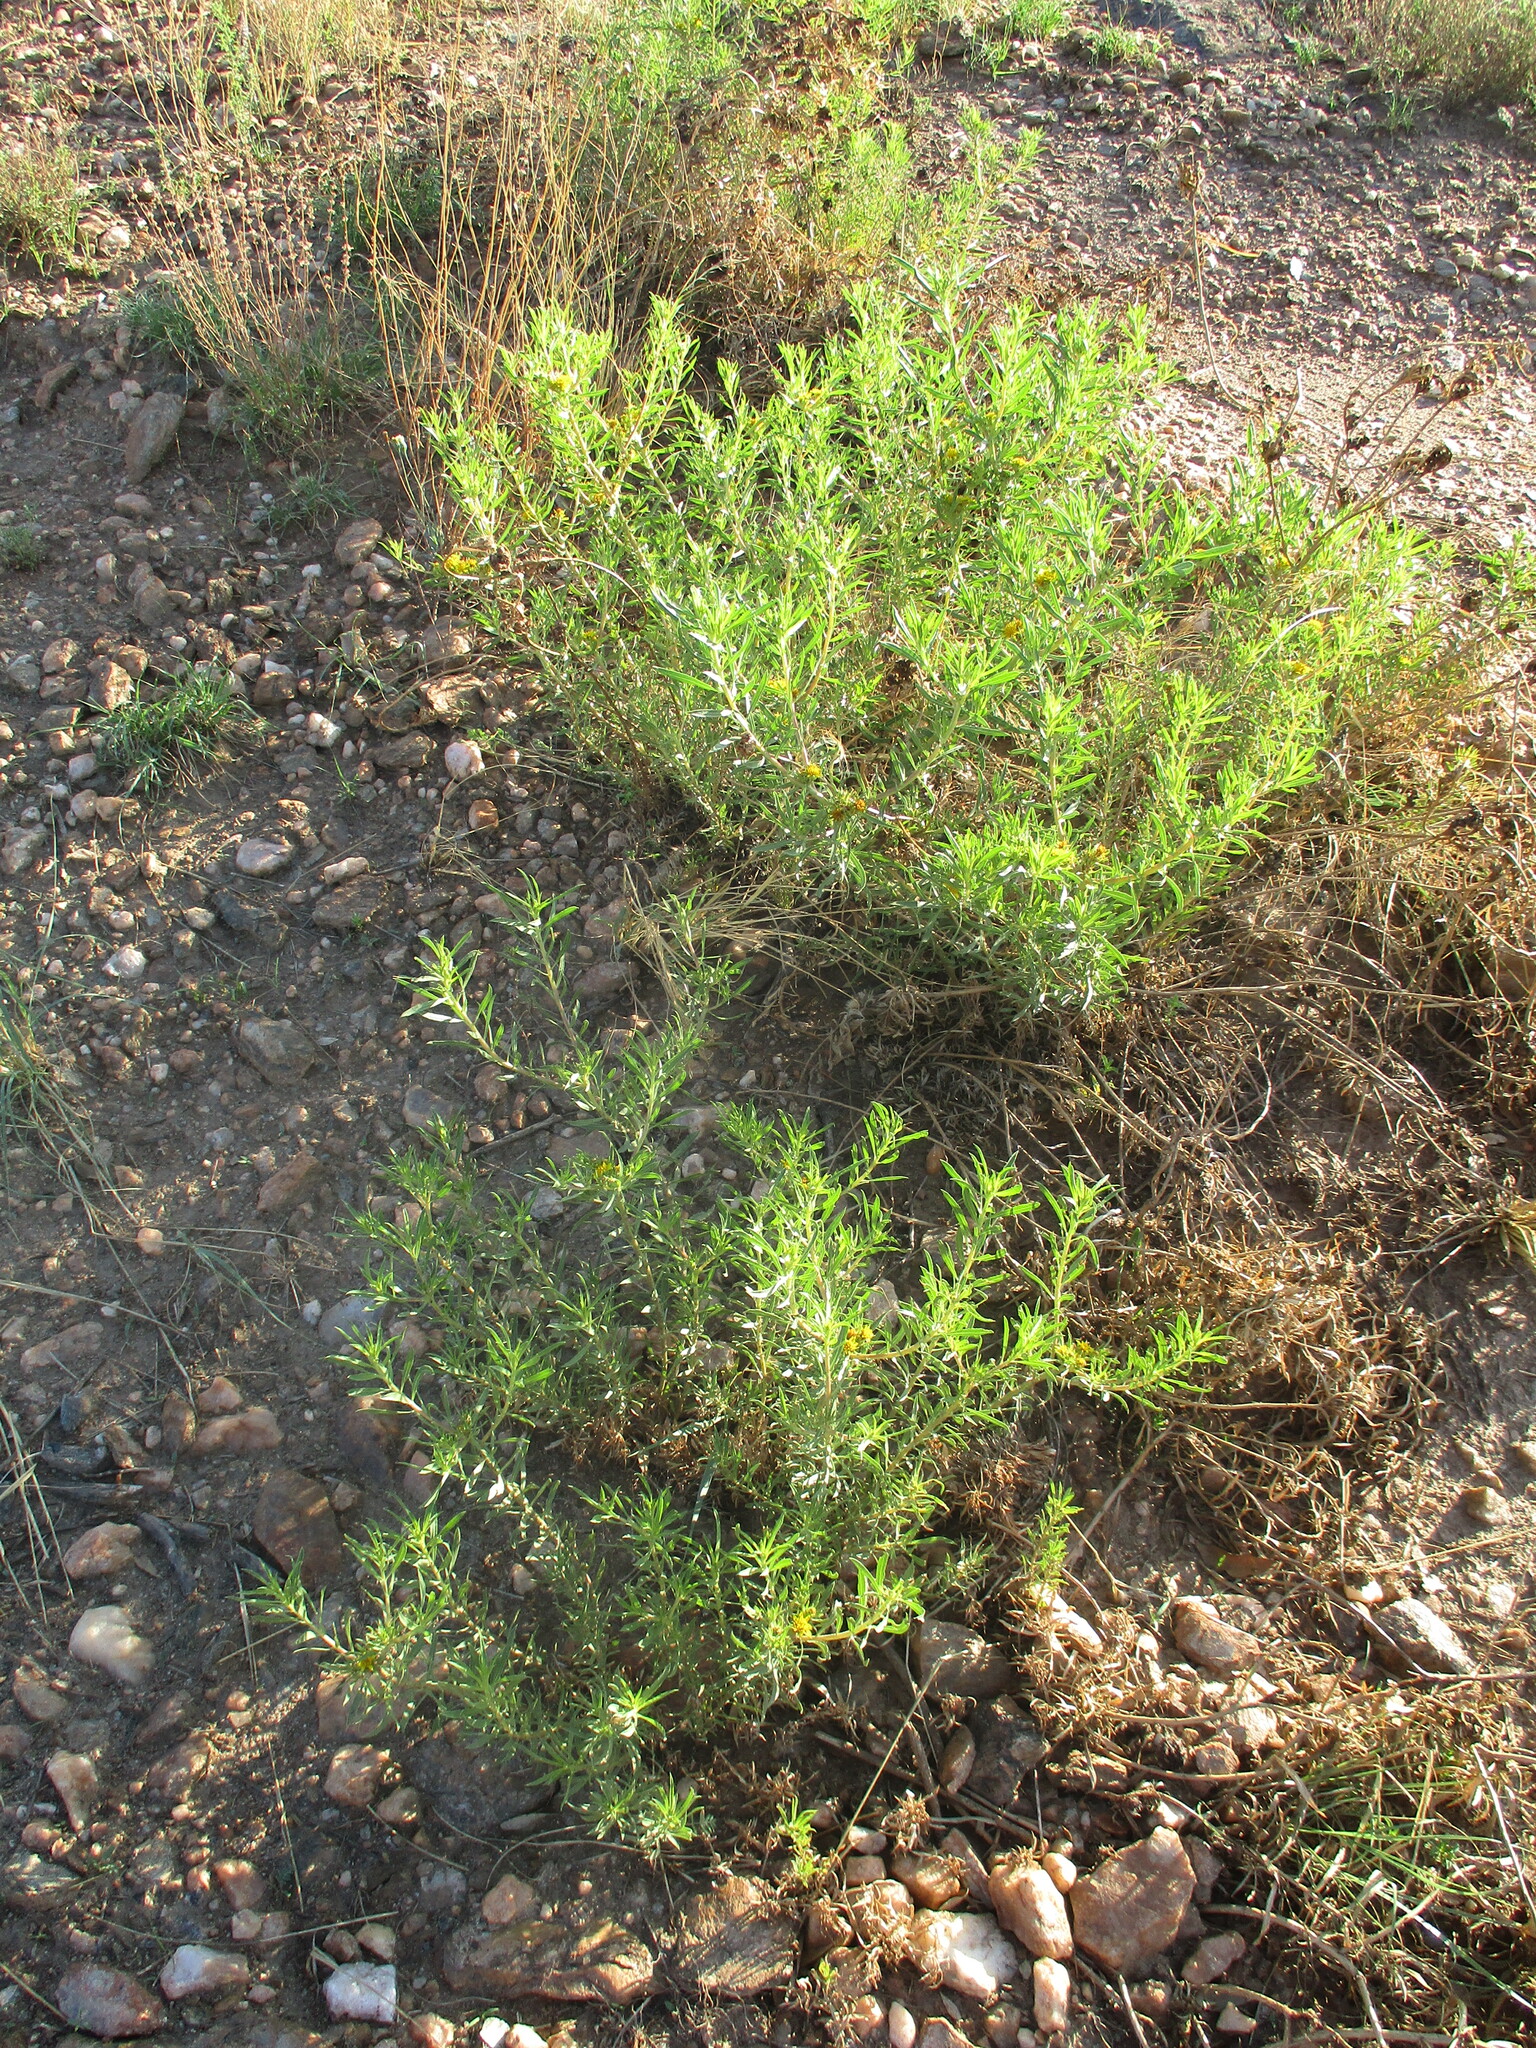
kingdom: Plantae
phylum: Tracheophyta
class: Magnoliopsida
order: Asterales
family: Asteraceae
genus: Geigeria
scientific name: Geigeria pectidea
